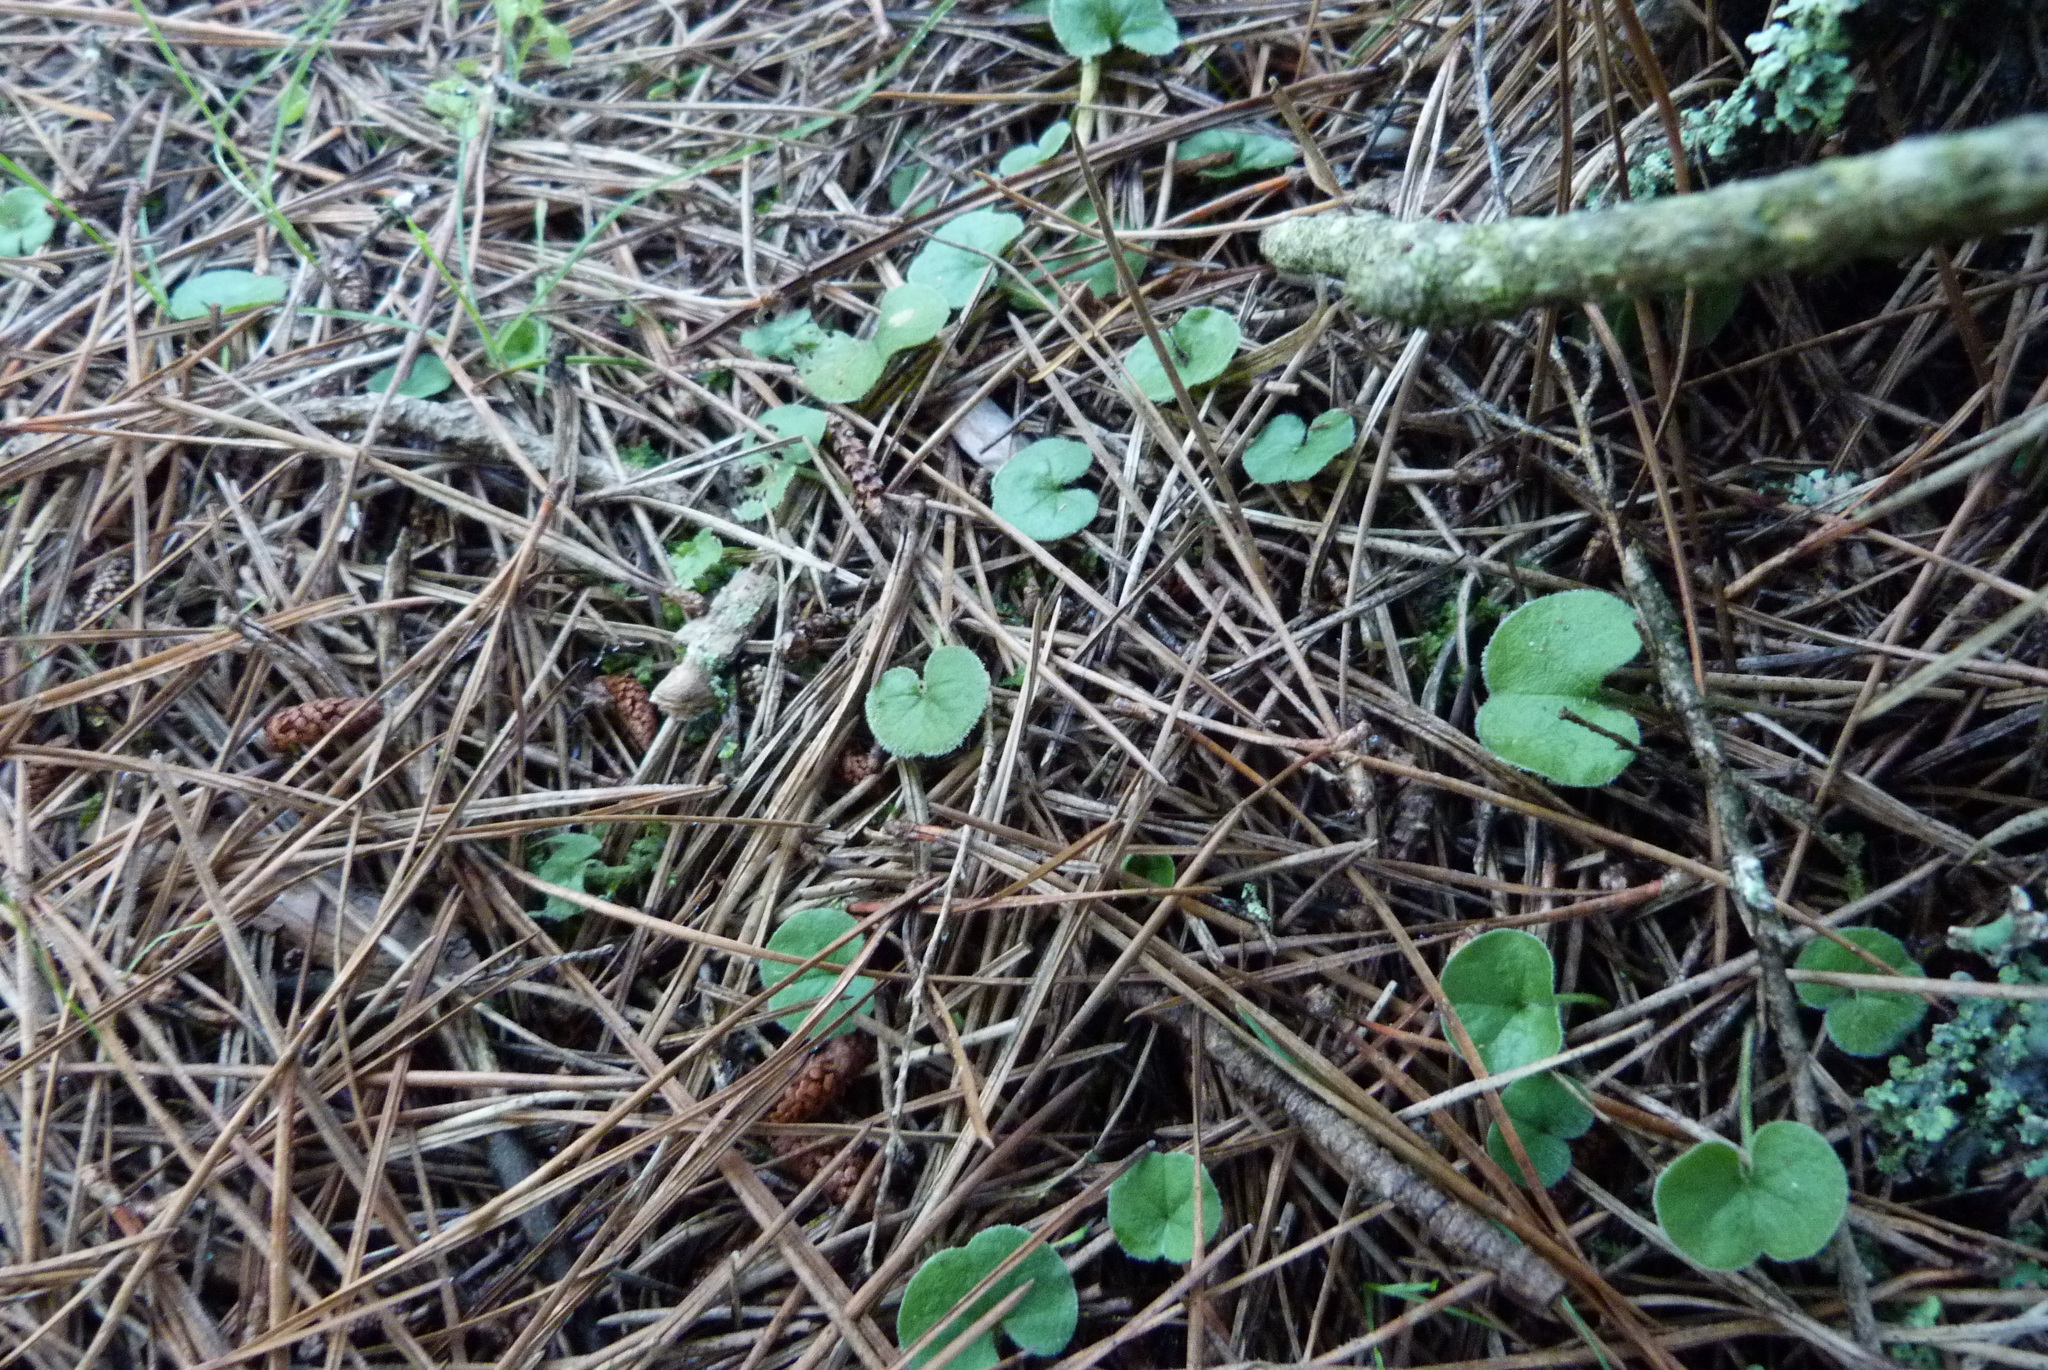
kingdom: Plantae
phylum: Tracheophyta
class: Magnoliopsida
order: Solanales
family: Convolvulaceae
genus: Dichondra
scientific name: Dichondra repens
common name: Kidneyweed
